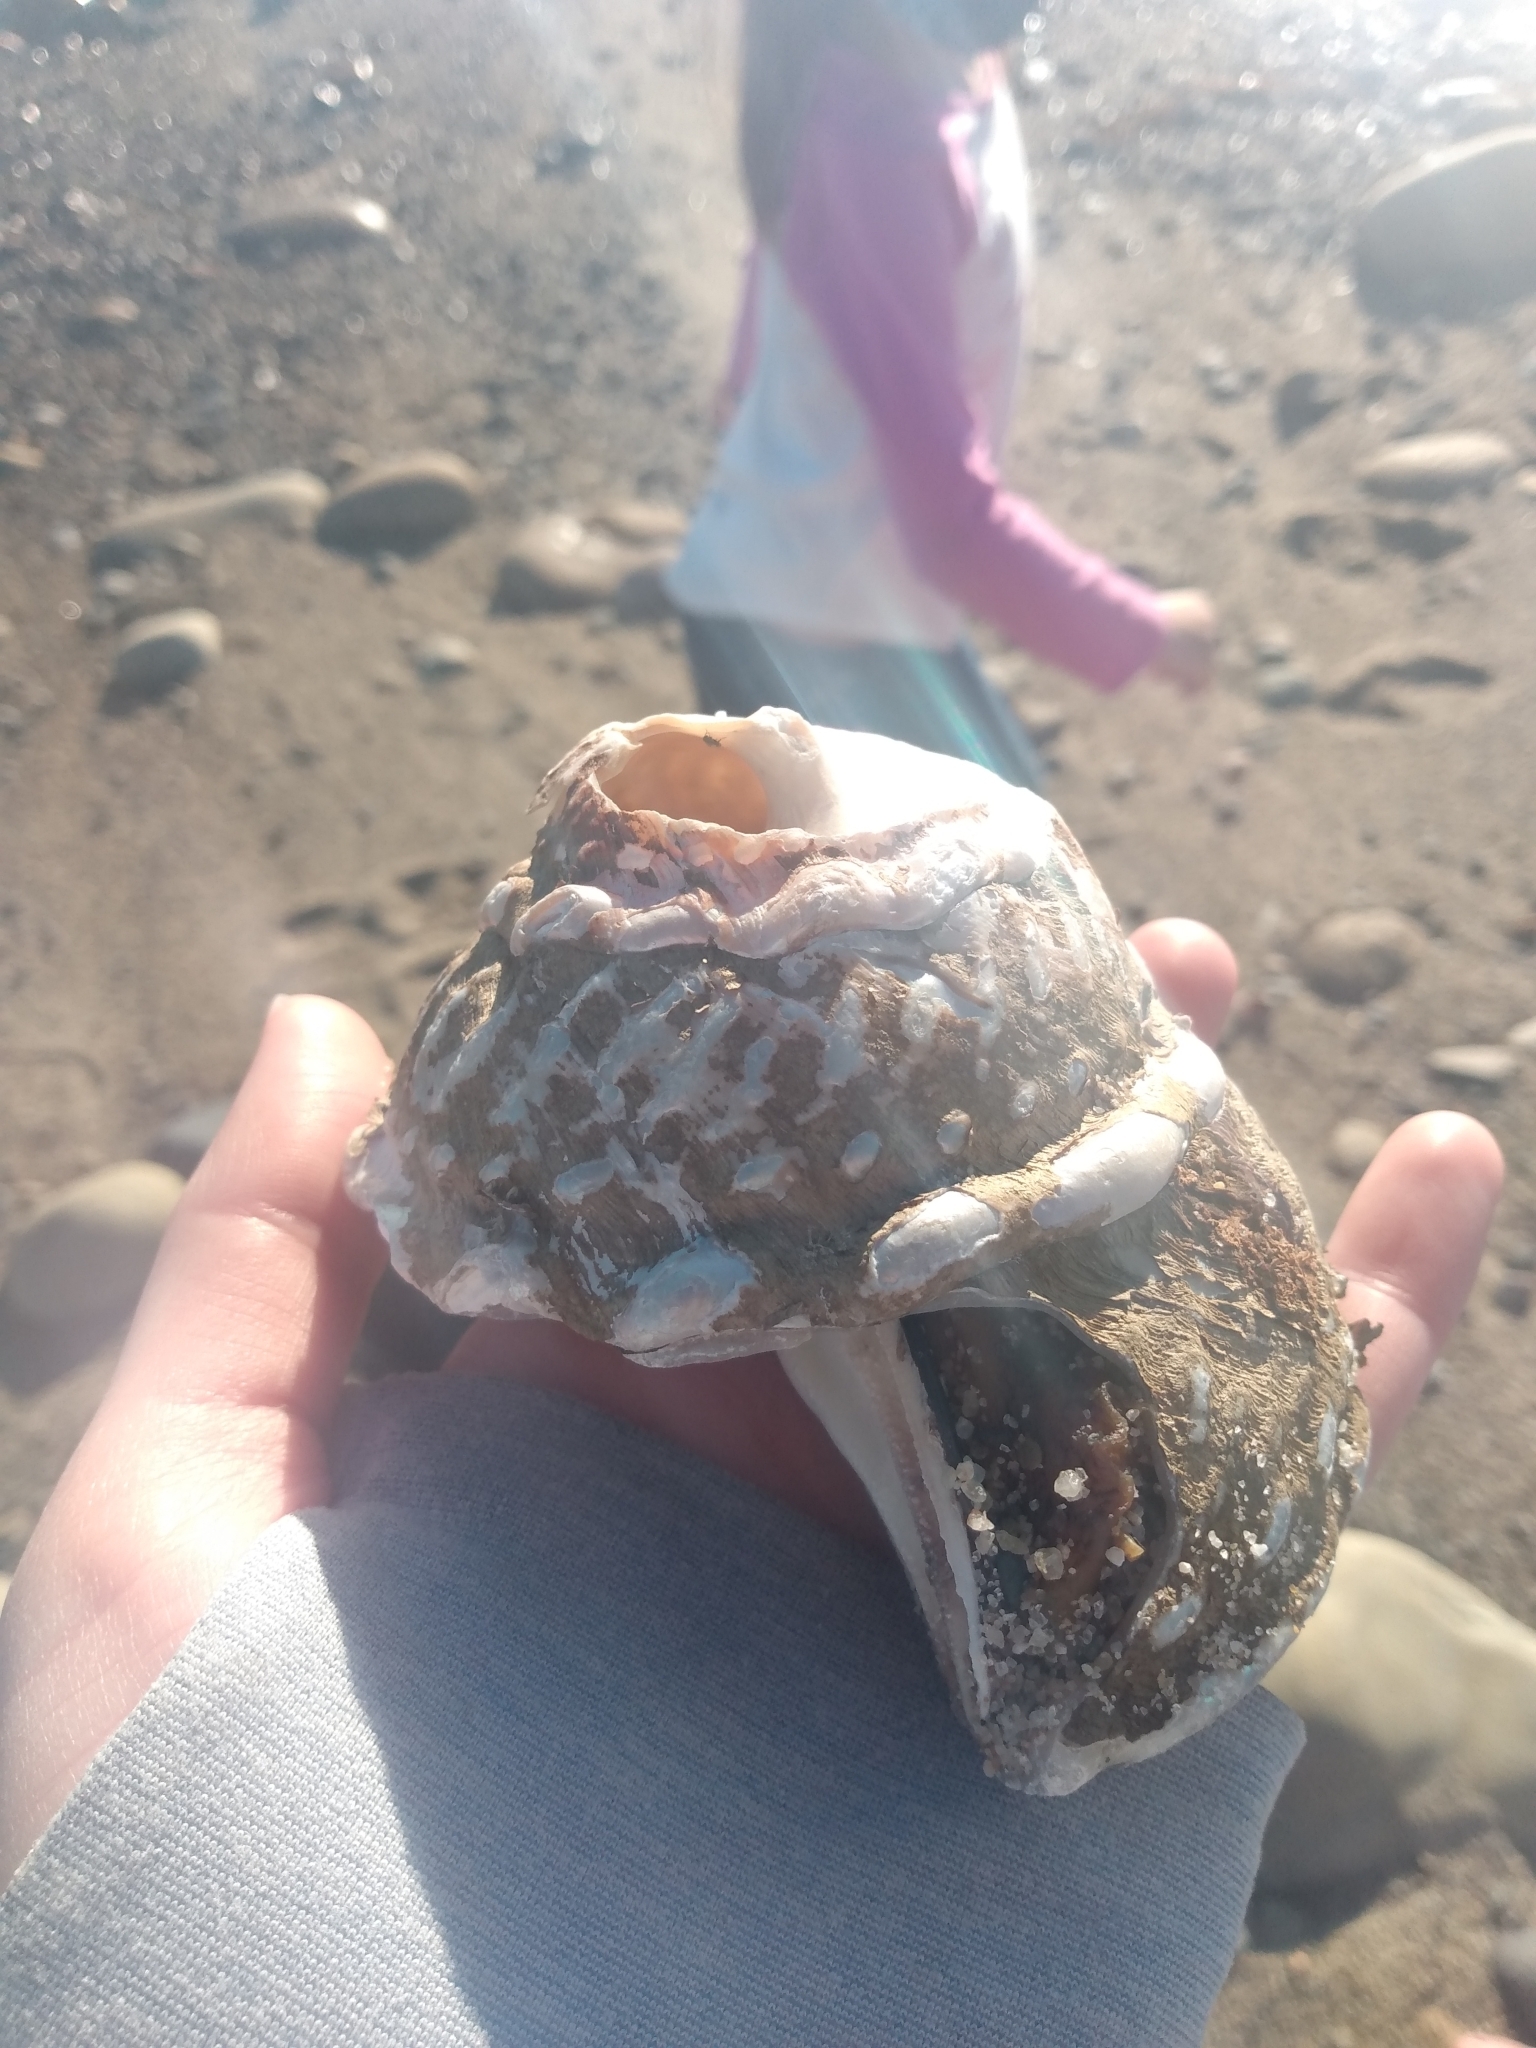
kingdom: Animalia
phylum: Mollusca
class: Gastropoda
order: Trochida
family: Turbinidae
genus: Megastraea
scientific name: Megastraea undosa
